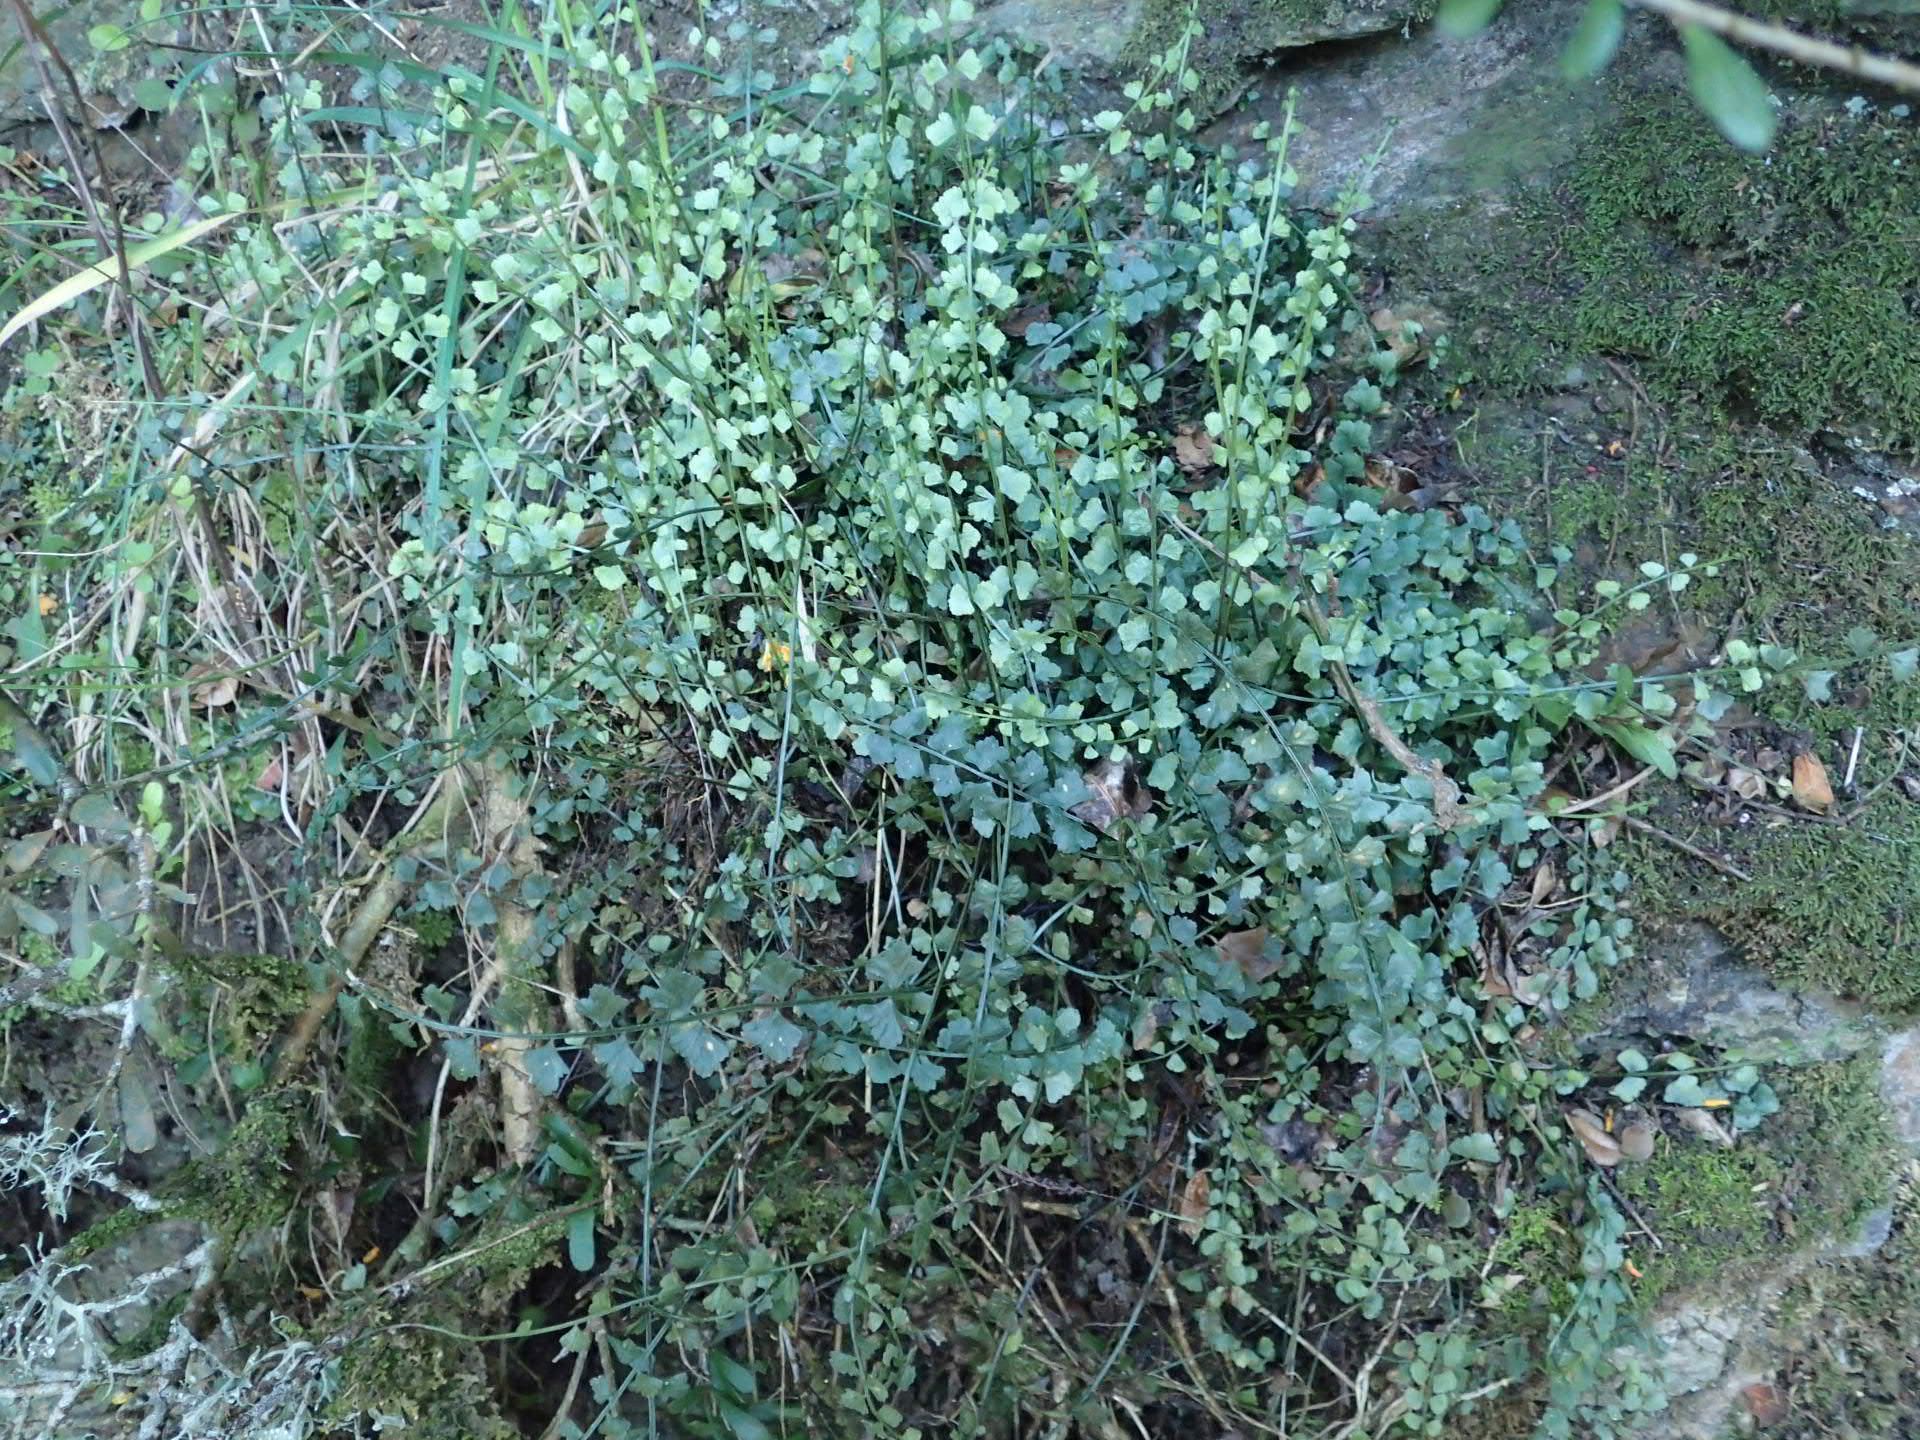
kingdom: Plantae
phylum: Tracheophyta
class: Polypodiopsida
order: Polypodiales
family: Aspleniaceae
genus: Asplenium
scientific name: Asplenium flabellifolium
